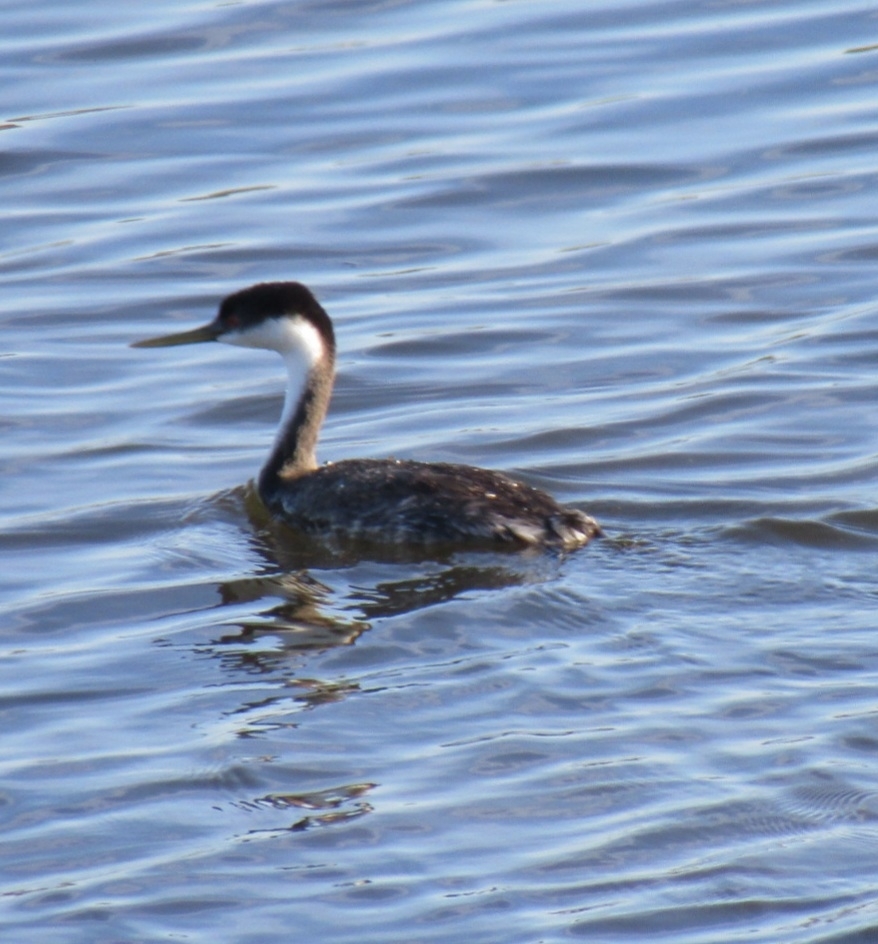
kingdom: Animalia
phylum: Chordata
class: Aves
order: Podicipediformes
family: Podicipedidae
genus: Aechmophorus
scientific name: Aechmophorus occidentalis
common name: Western grebe
